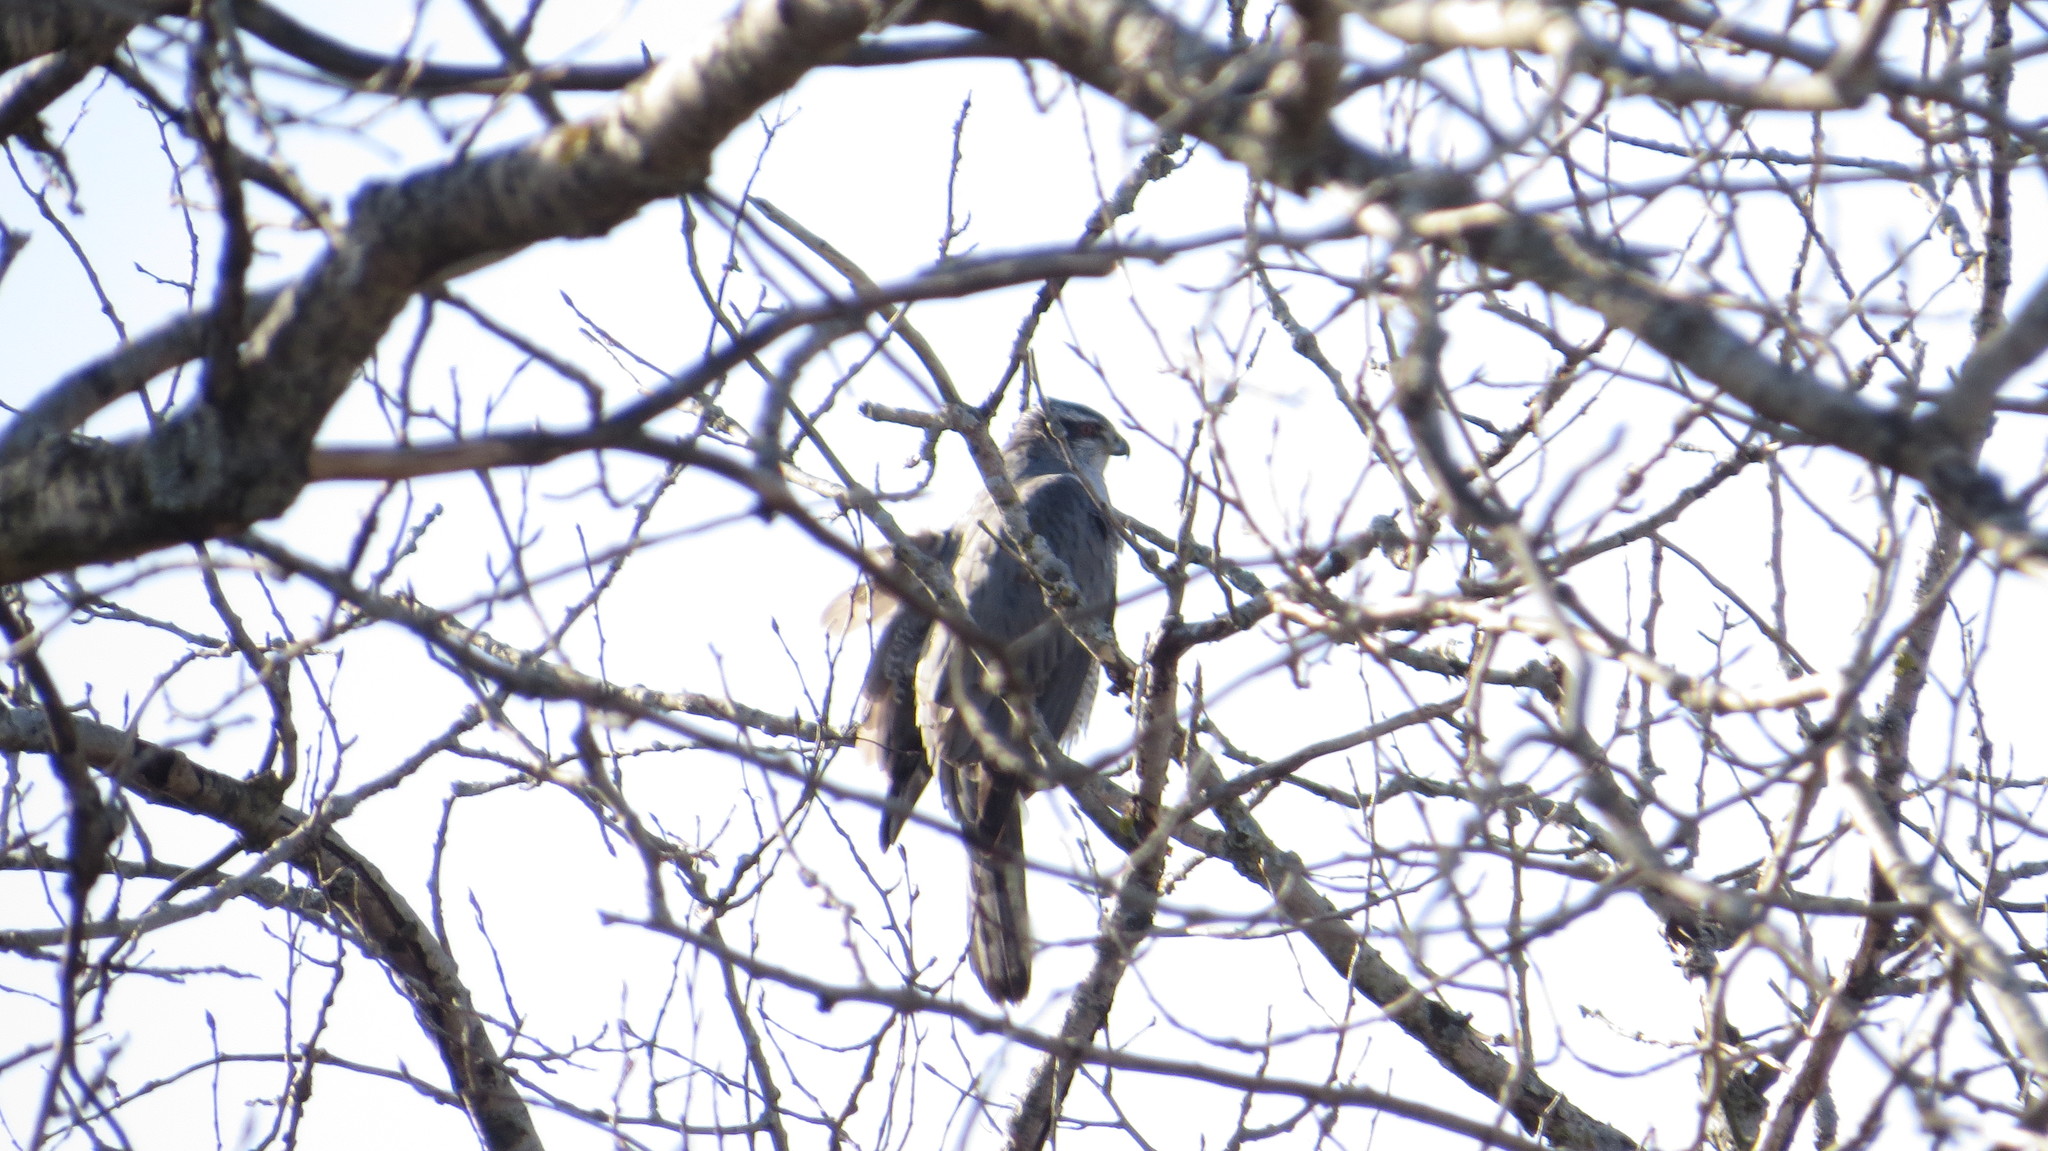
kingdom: Animalia
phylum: Chordata
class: Aves
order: Accipitriformes
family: Accipitridae
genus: Accipiter
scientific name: Accipiter gentilis
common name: Northern goshawk
